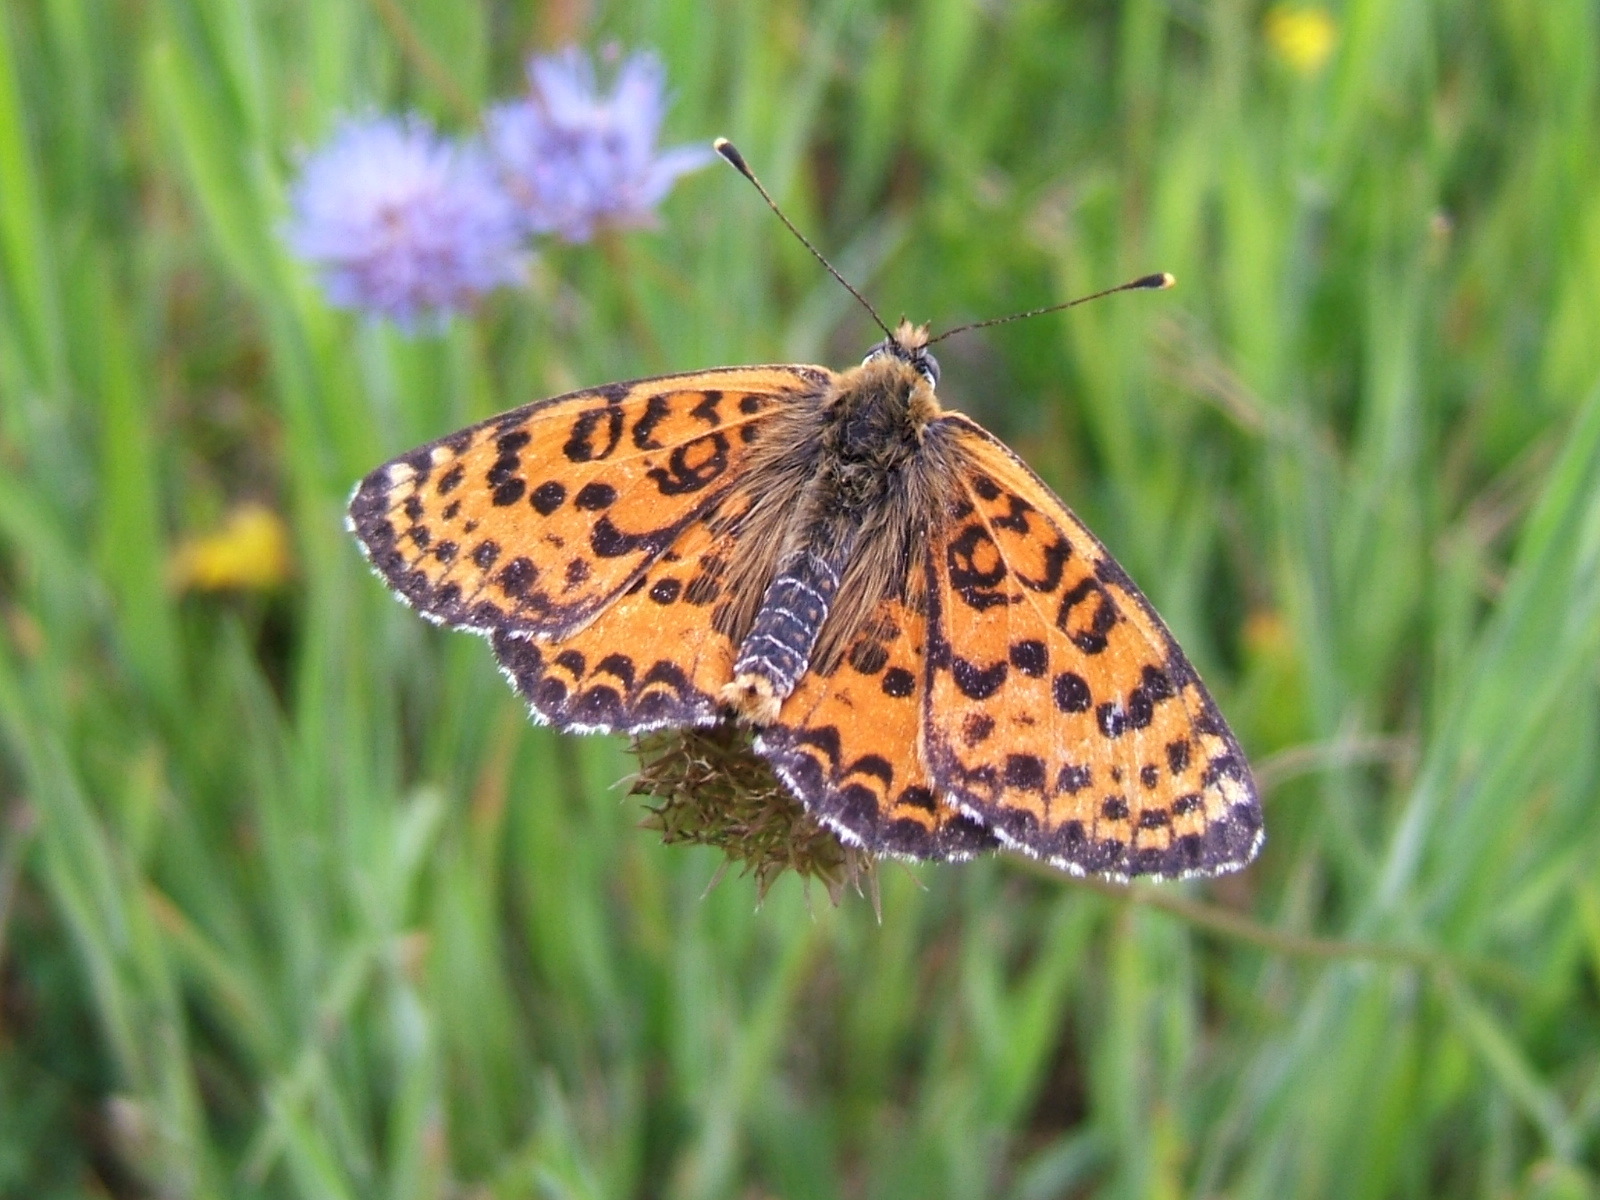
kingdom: Animalia
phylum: Arthropoda
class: Insecta
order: Lepidoptera
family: Nymphalidae
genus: Melitaea
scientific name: Melitaea didyma
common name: Spotted fritillary
